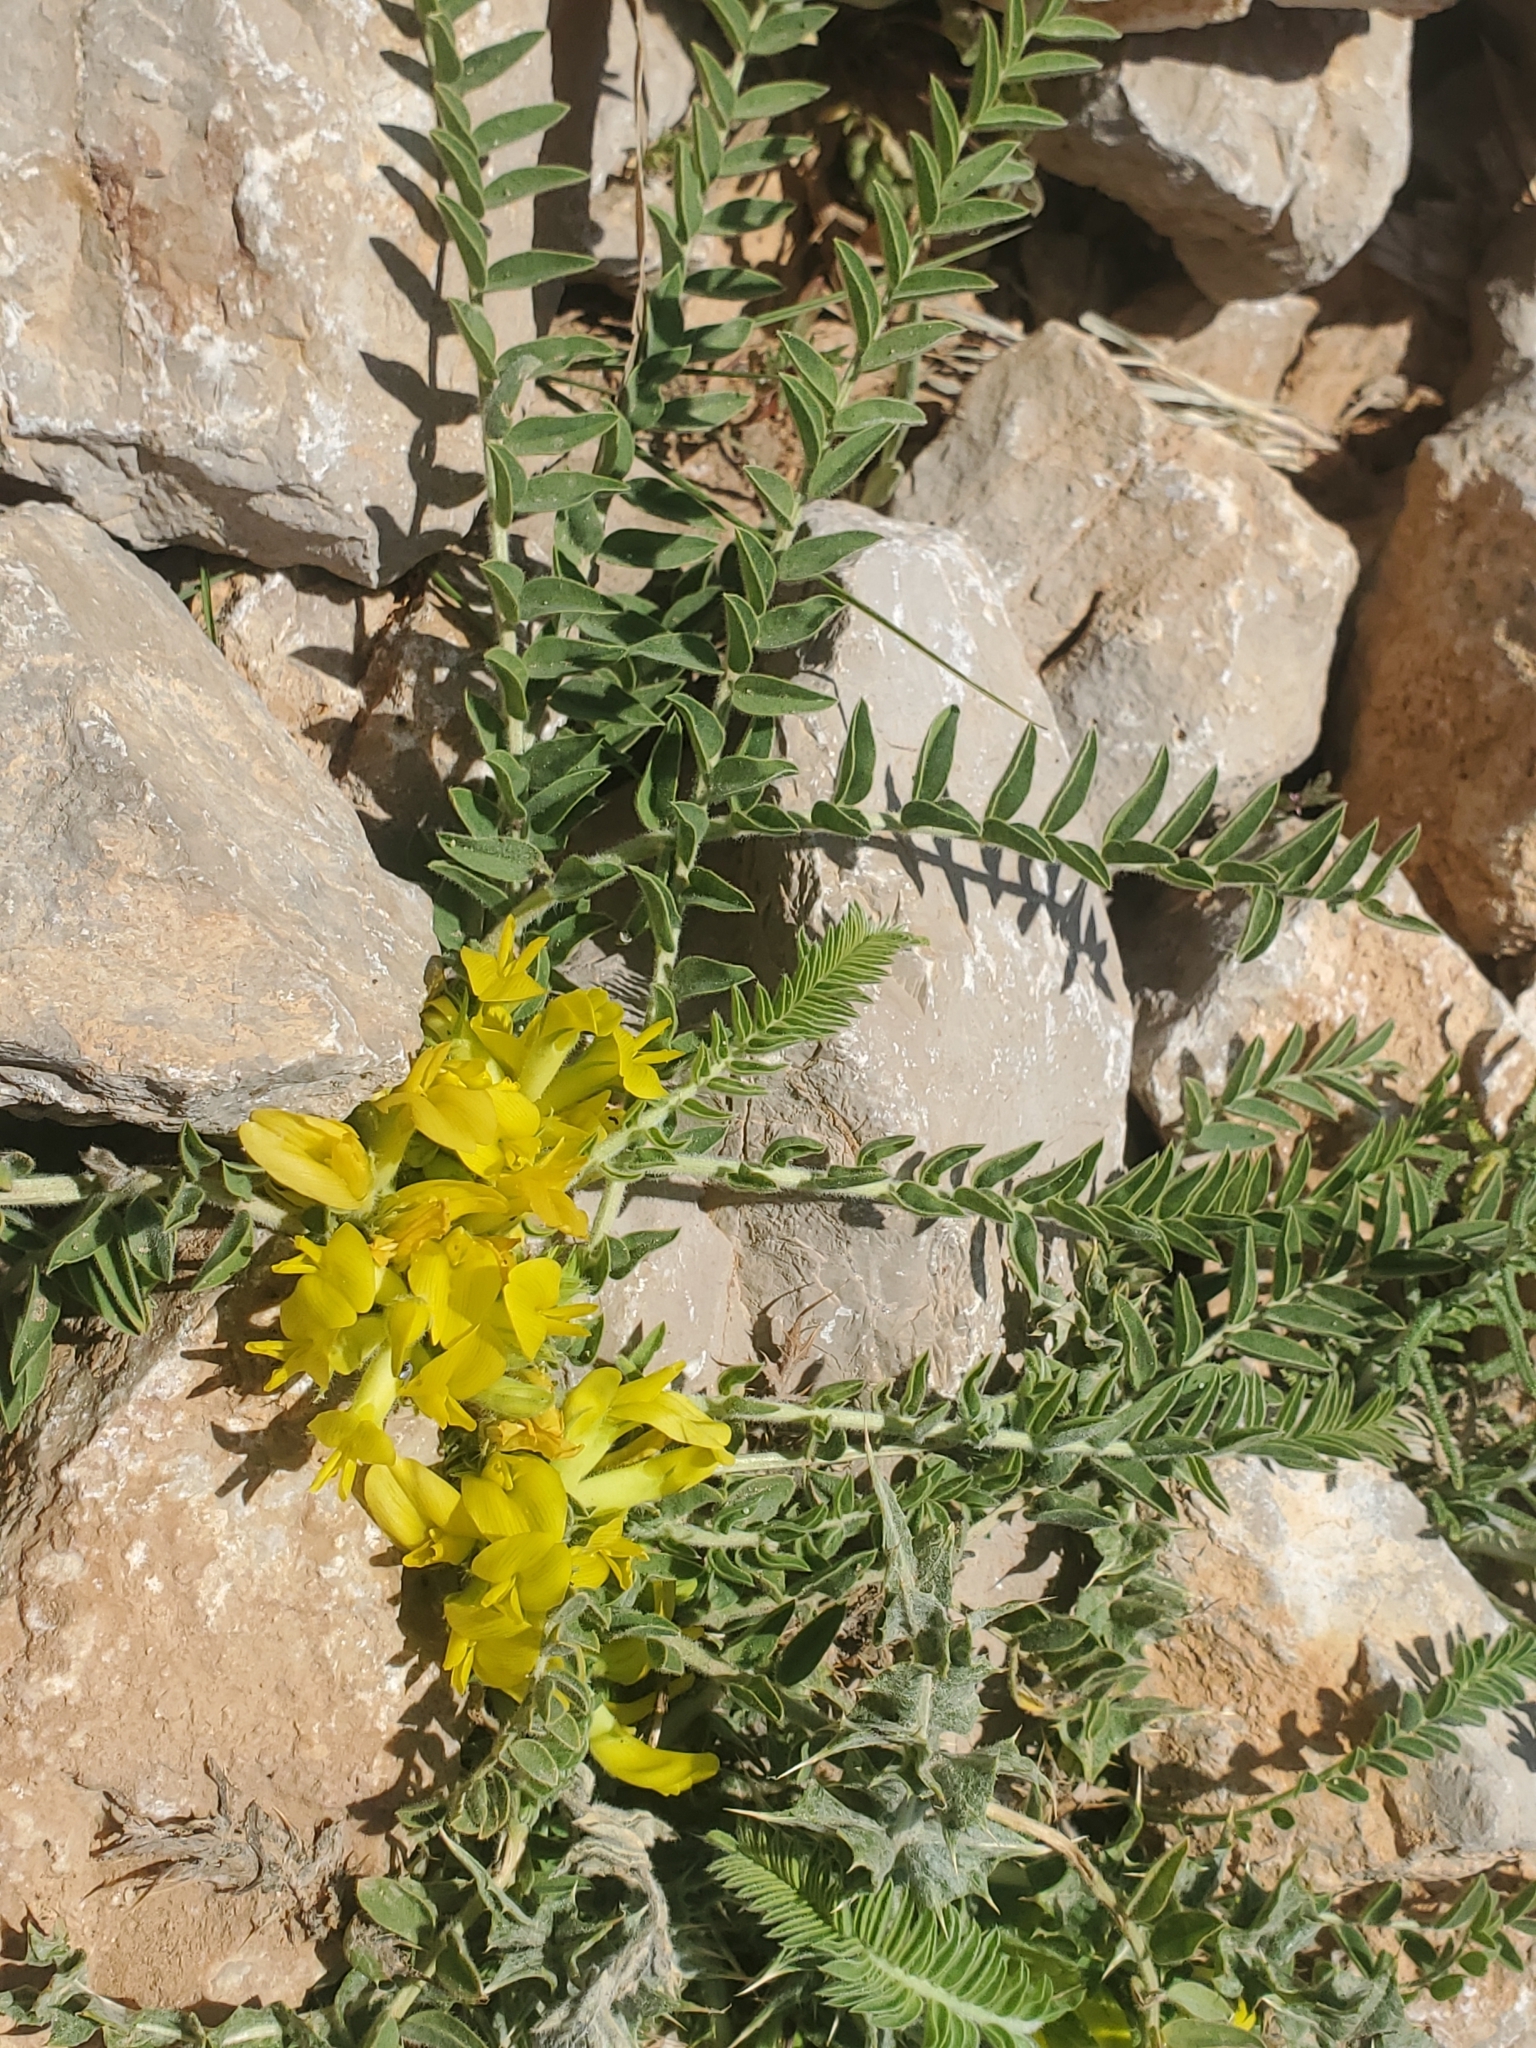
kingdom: Plantae
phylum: Tracheophyta
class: Magnoliopsida
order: Fabales
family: Fabaceae
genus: Astragalus
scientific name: Astragalus pinetorum
